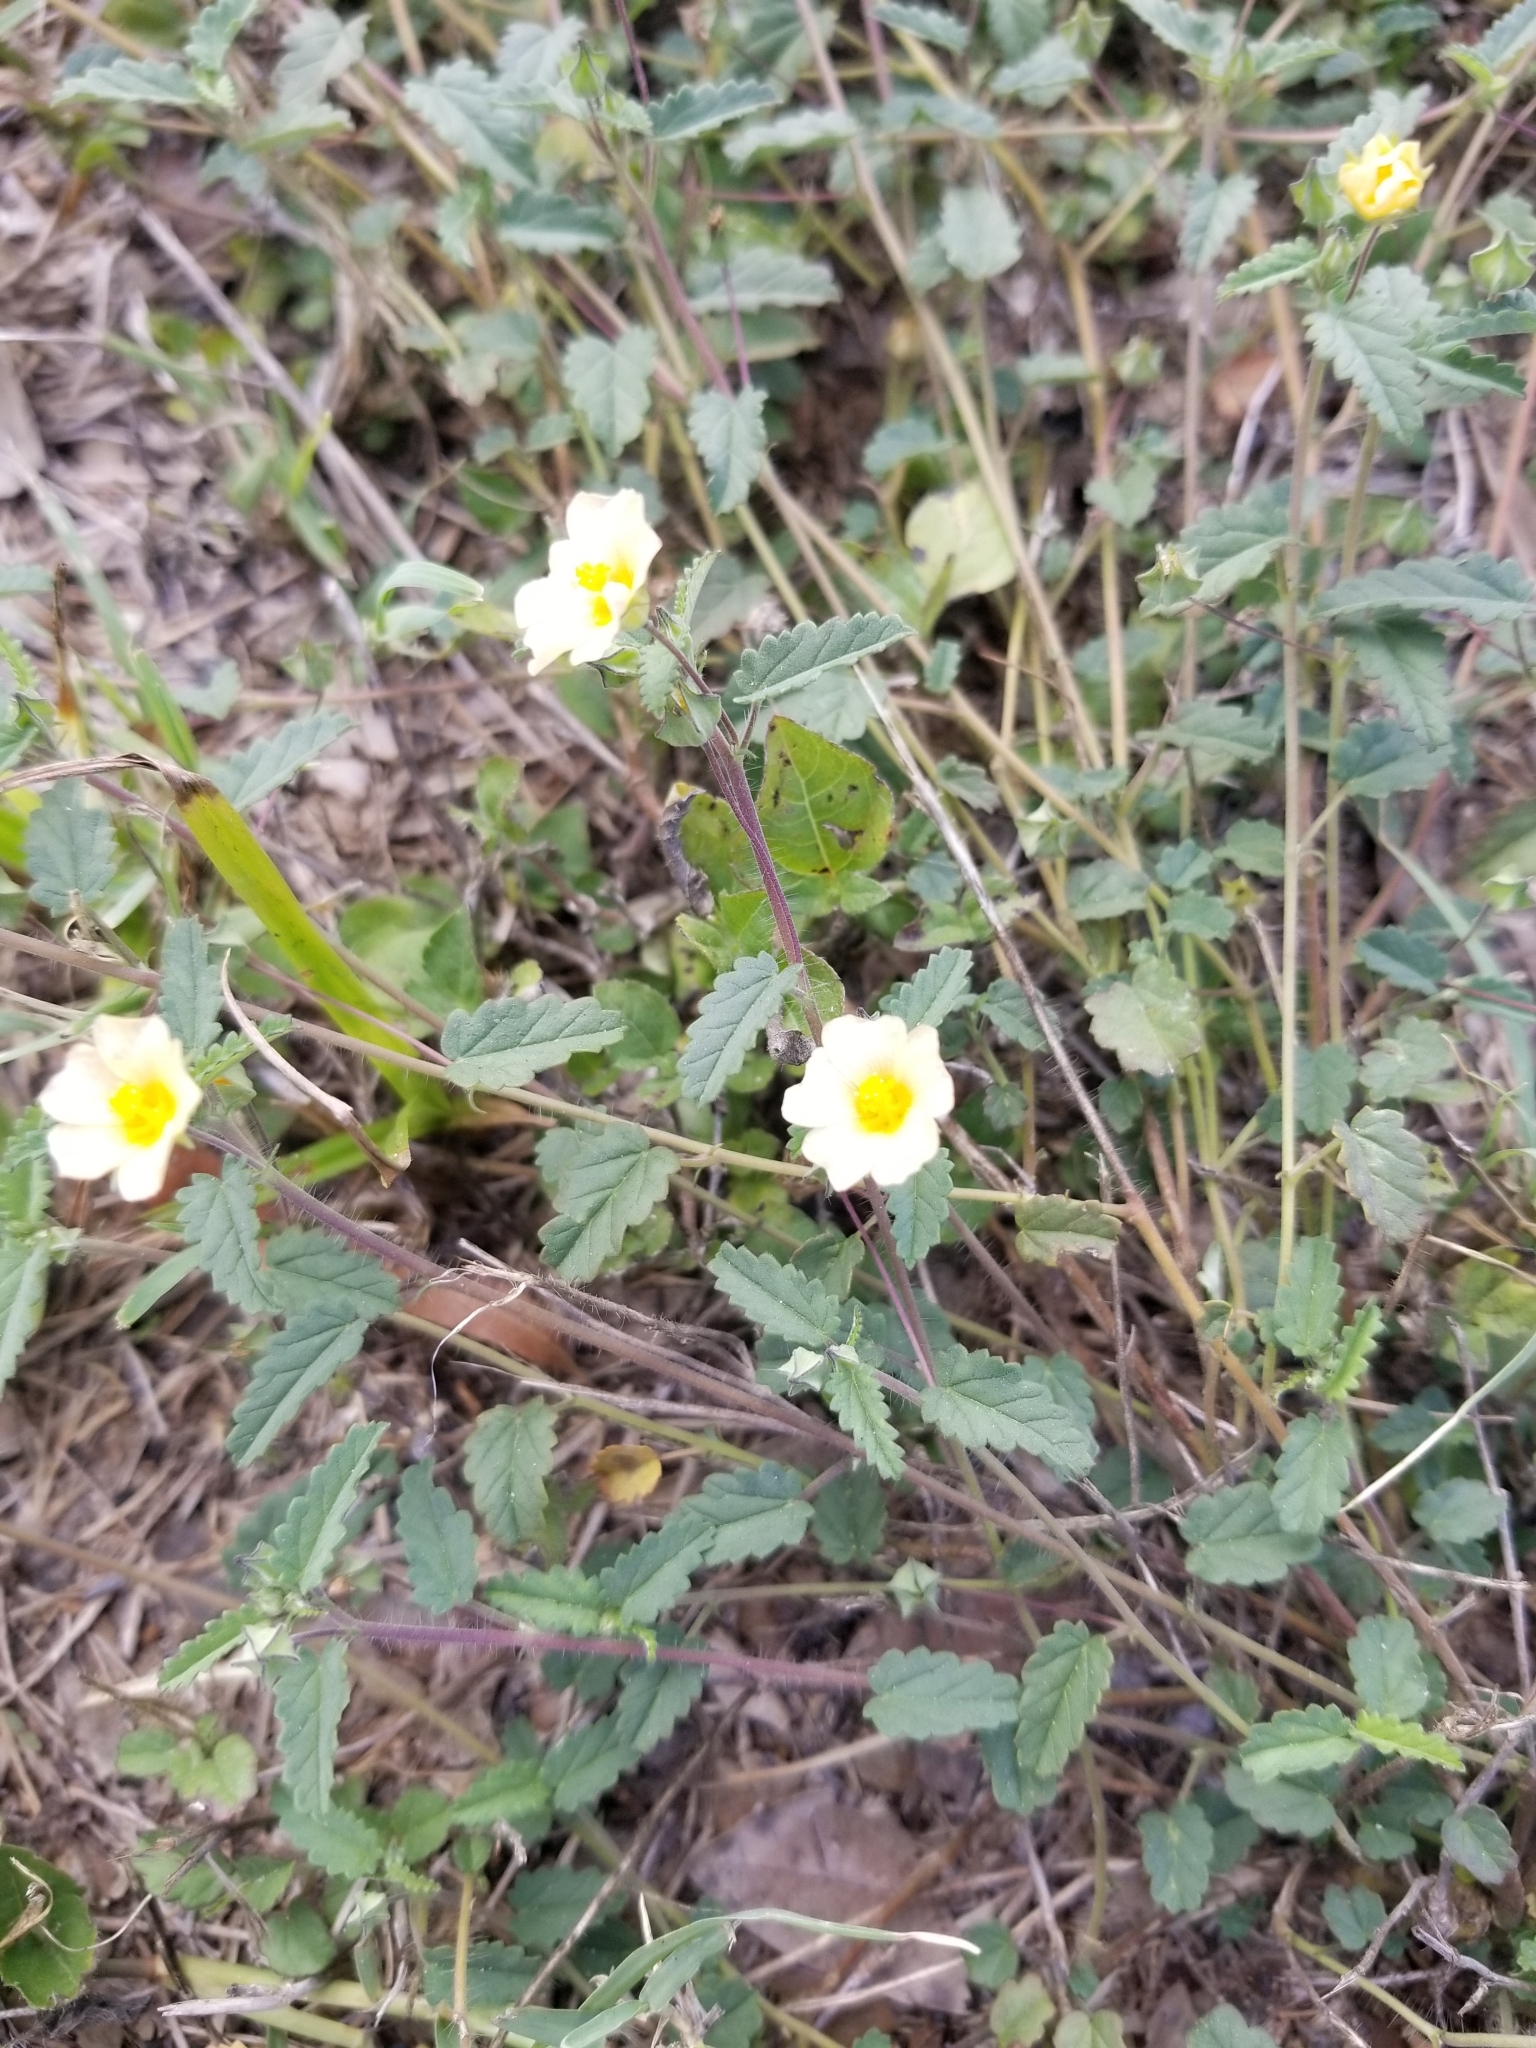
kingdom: Plantae
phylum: Tracheophyta
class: Magnoliopsida
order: Malvales
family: Malvaceae
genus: Sida
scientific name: Sida abutilifolia
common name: Spreading fanpetals
